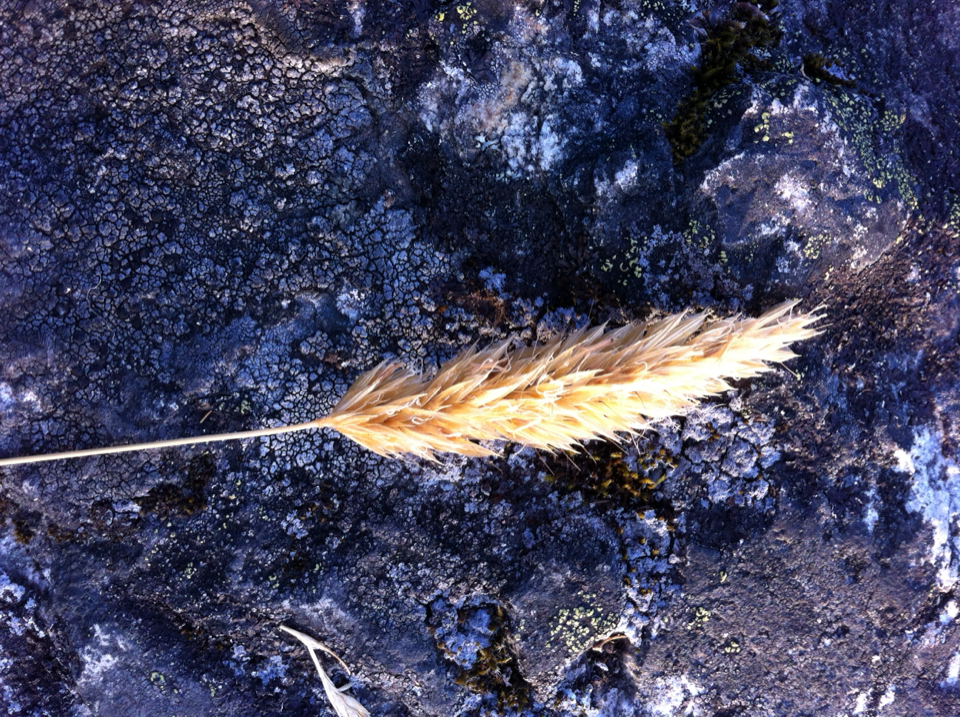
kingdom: Plantae
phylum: Tracheophyta
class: Liliopsida
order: Poales
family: Poaceae
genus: Anthoxanthum
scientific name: Anthoxanthum odoratum
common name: Sweet vernalgrass
